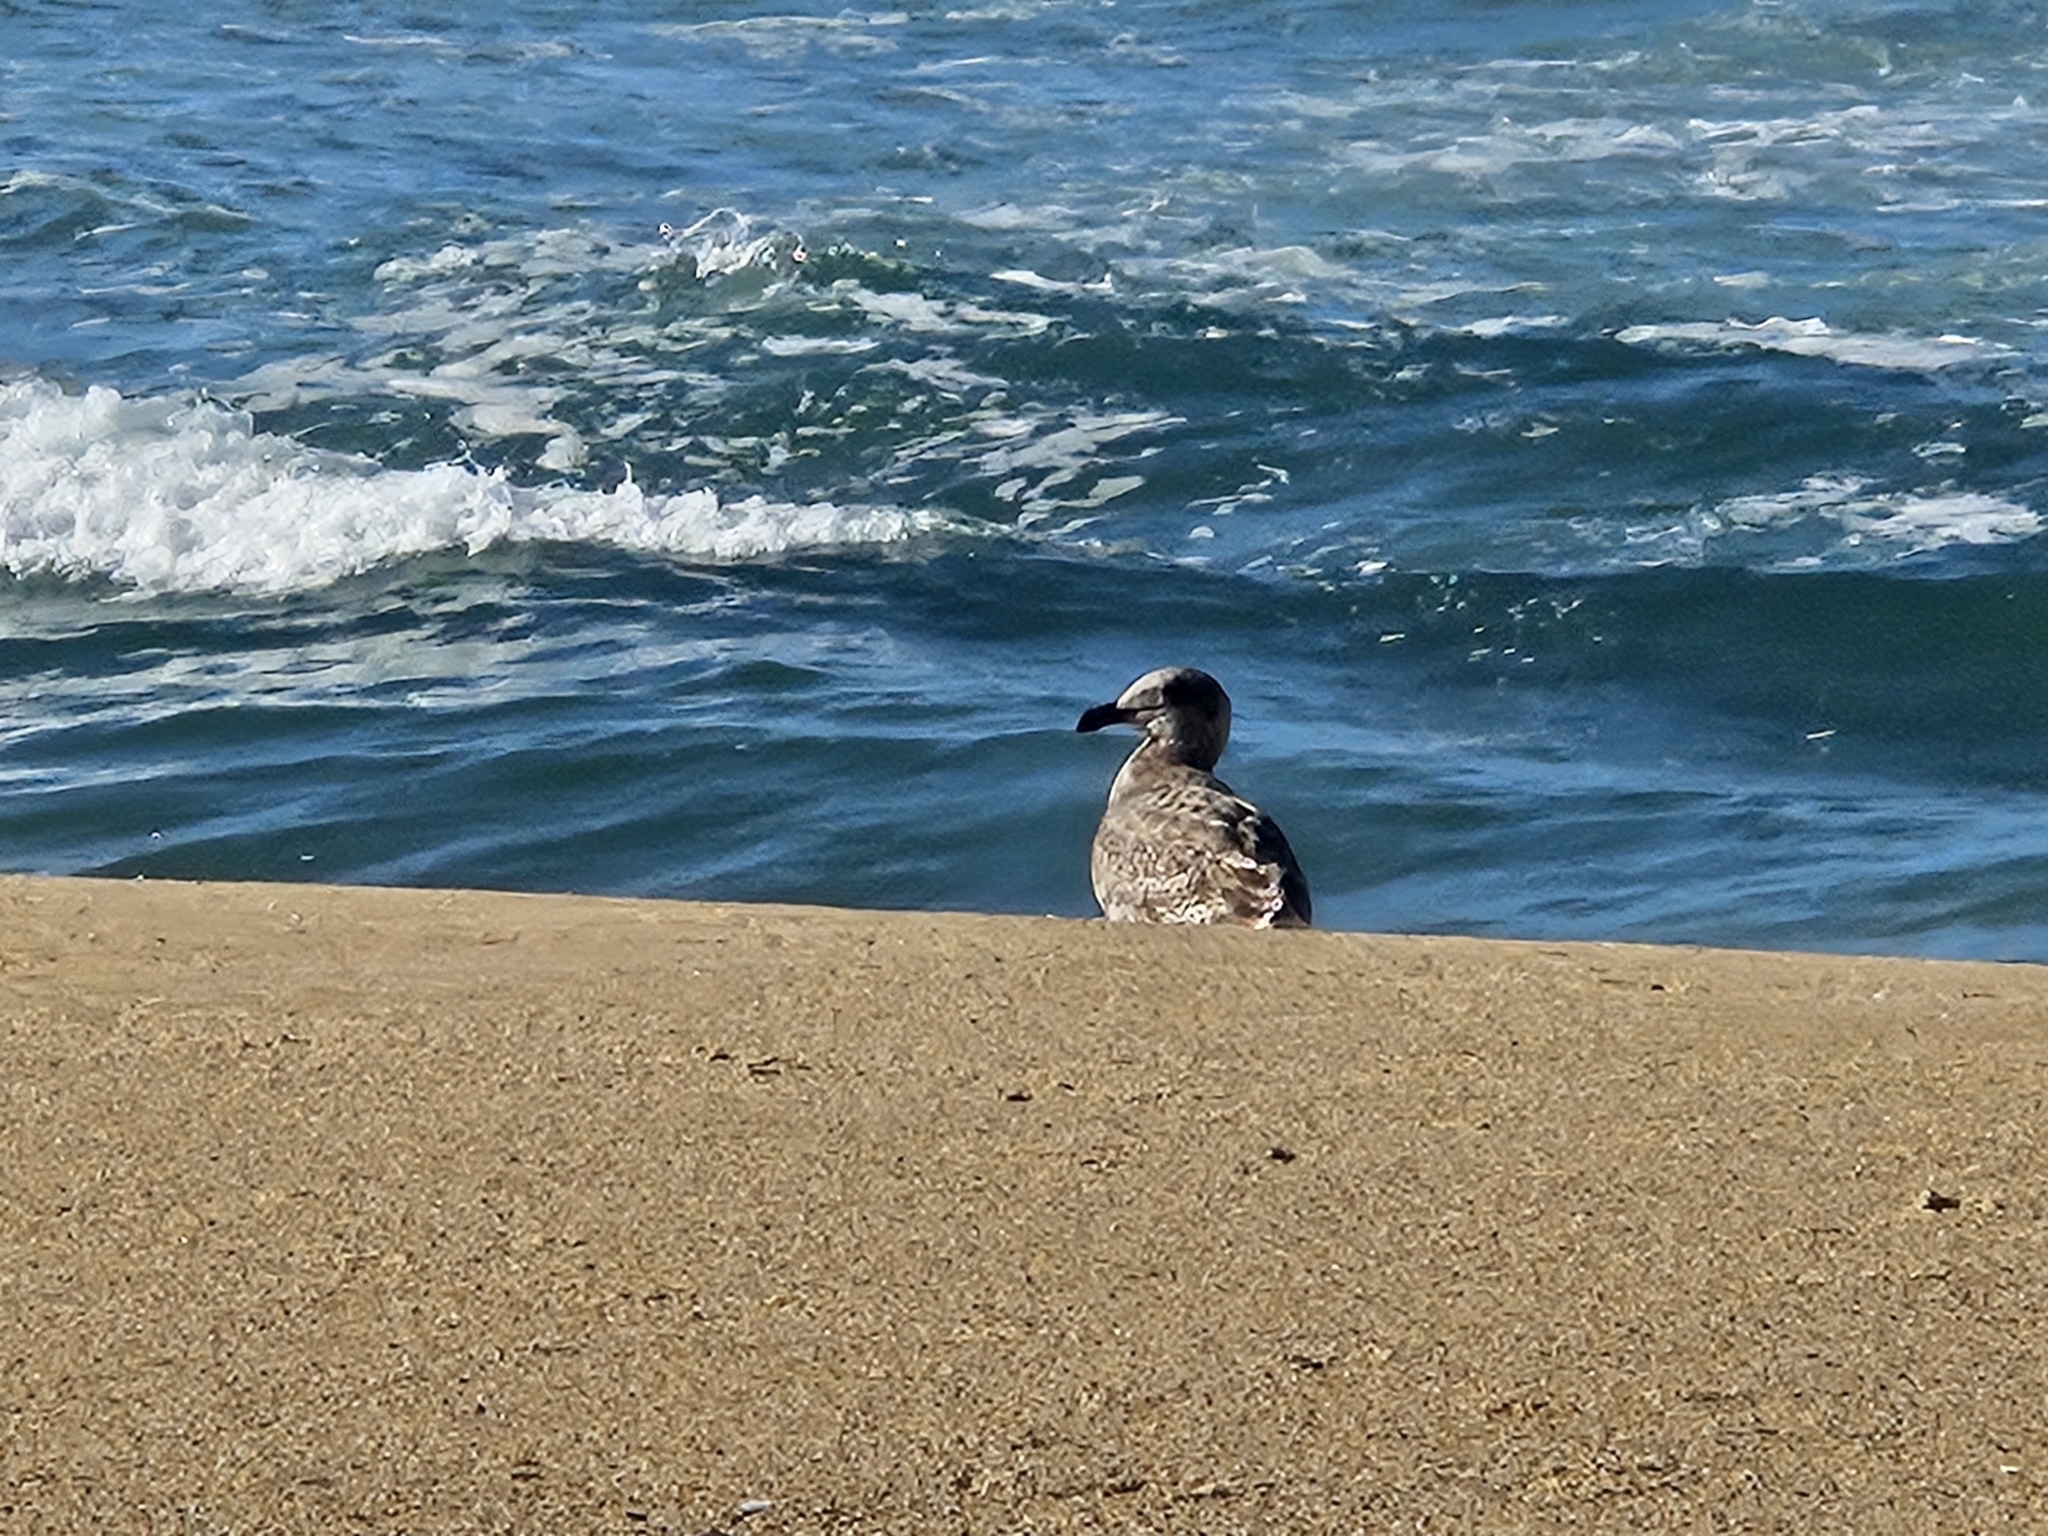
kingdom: Animalia
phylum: Chordata
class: Aves
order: Charadriiformes
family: Laridae
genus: Larus
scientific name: Larus occidentalis
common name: Western gull
